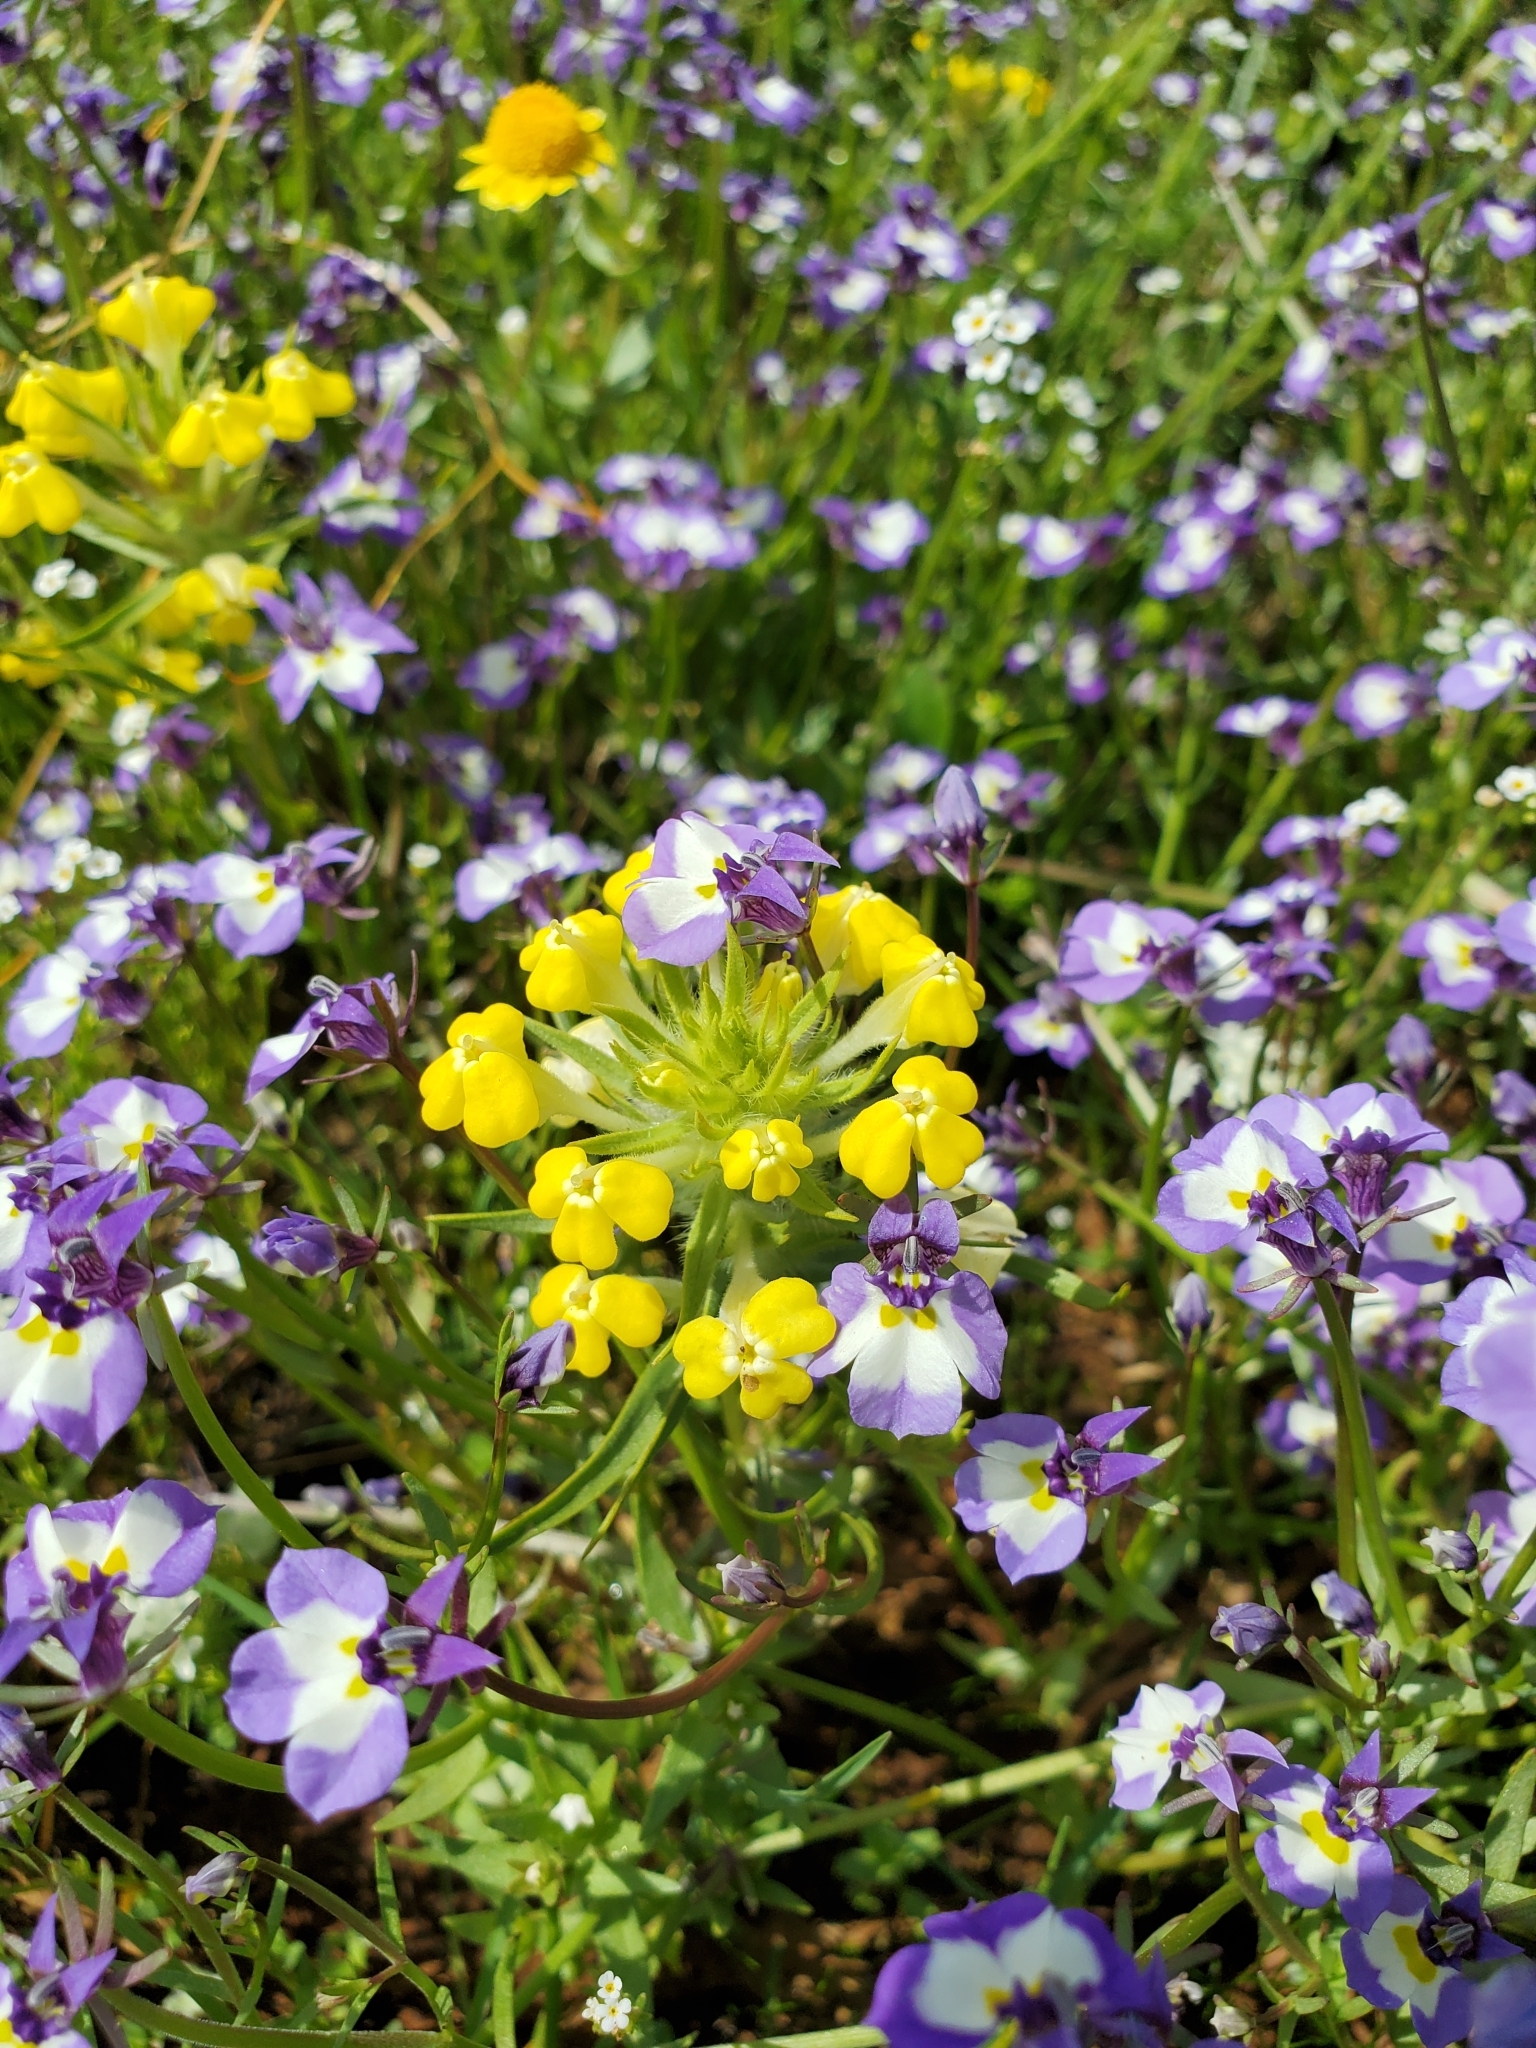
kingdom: Plantae
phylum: Tracheophyta
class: Magnoliopsida
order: Lamiales
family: Orobanchaceae
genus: Castilleja
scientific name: Castilleja campestris
